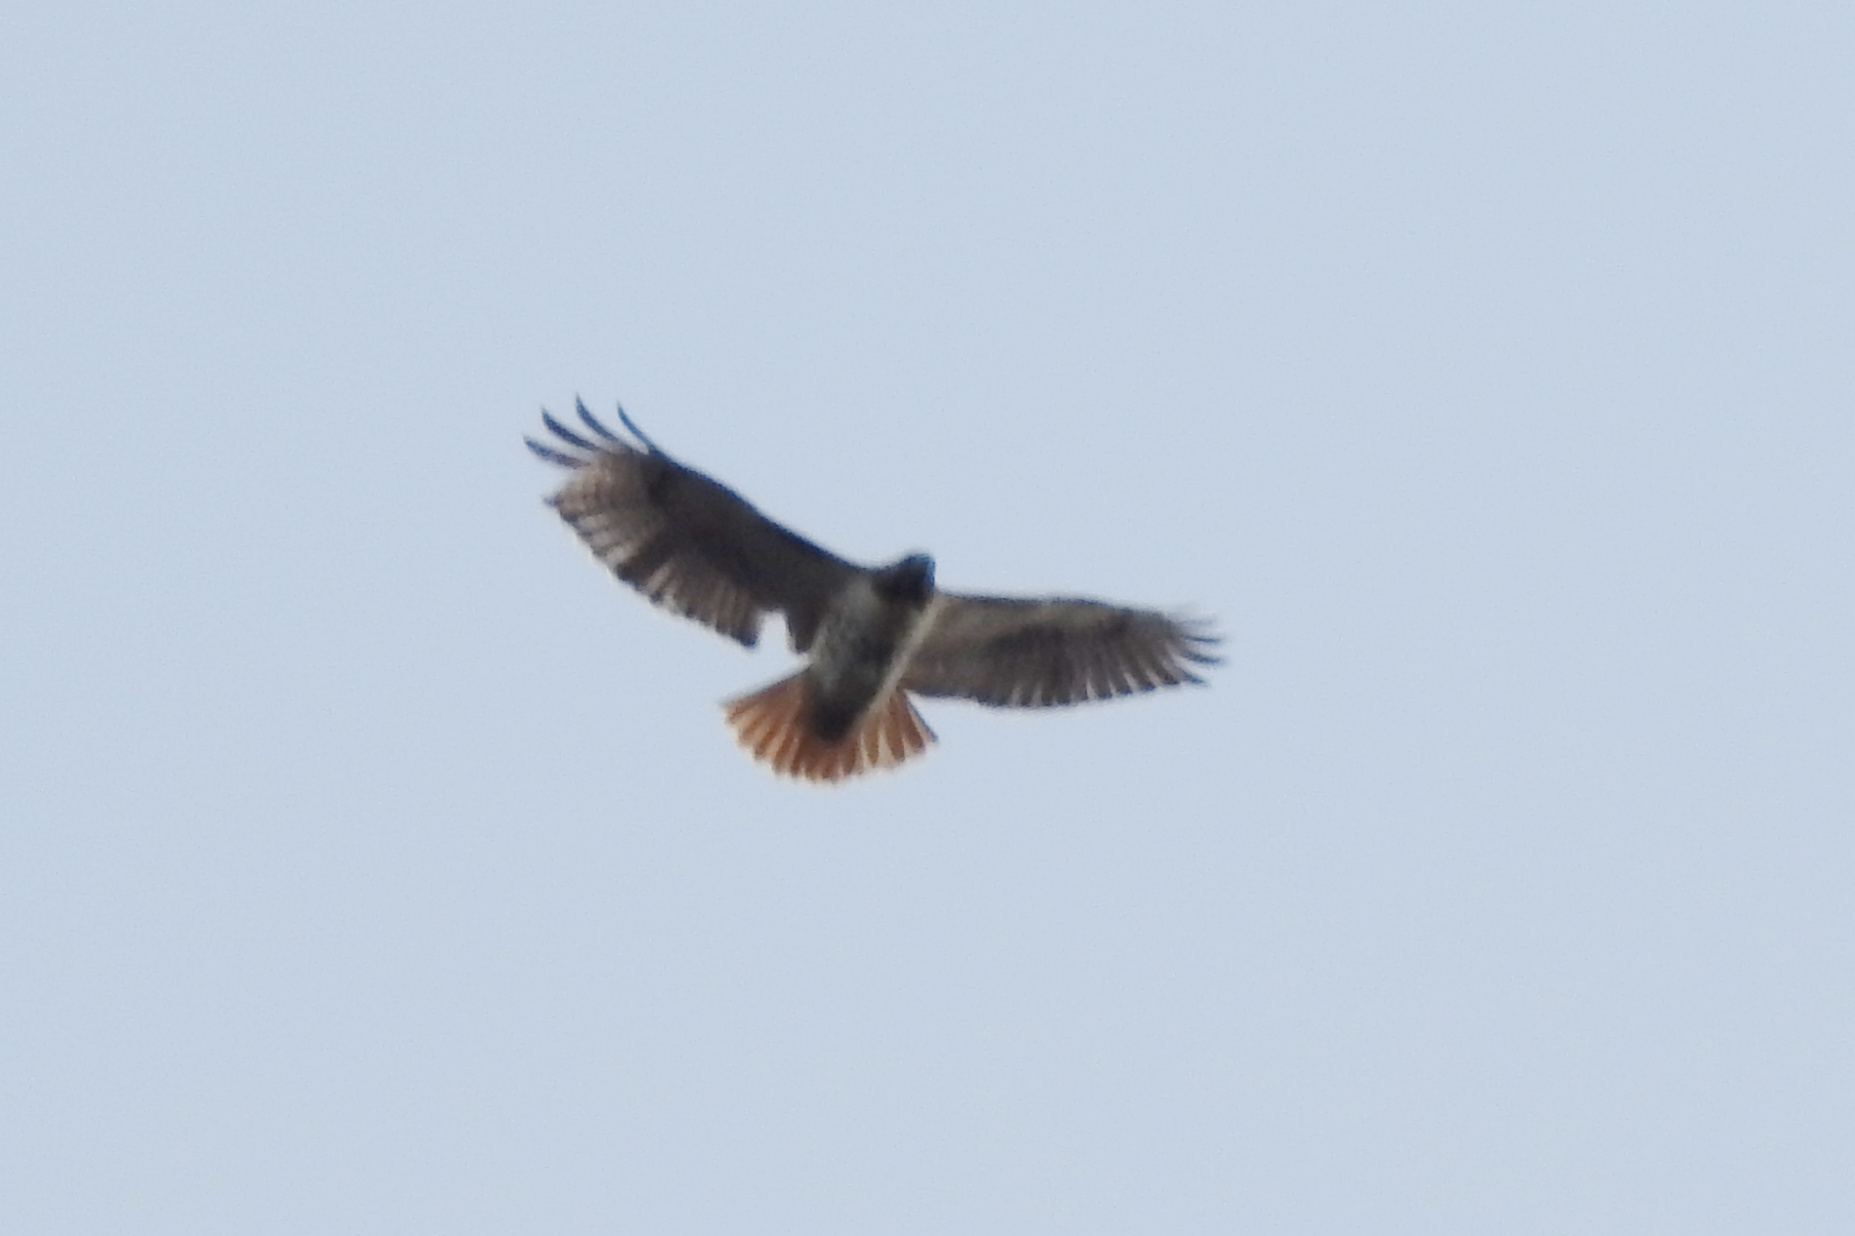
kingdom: Animalia
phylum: Chordata
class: Aves
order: Accipitriformes
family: Accipitridae
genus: Buteo
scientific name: Buteo jamaicensis
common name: Red-tailed hawk
